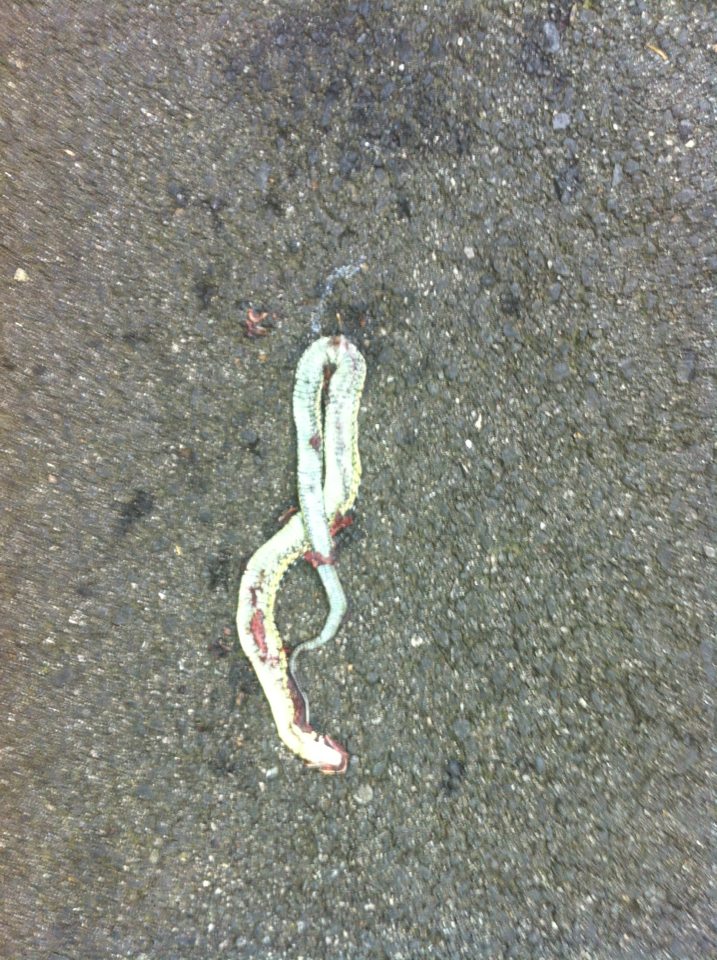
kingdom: Animalia
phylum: Chordata
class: Squamata
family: Colubridae
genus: Thamnophis
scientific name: Thamnophis sirtalis
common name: Common garter snake
